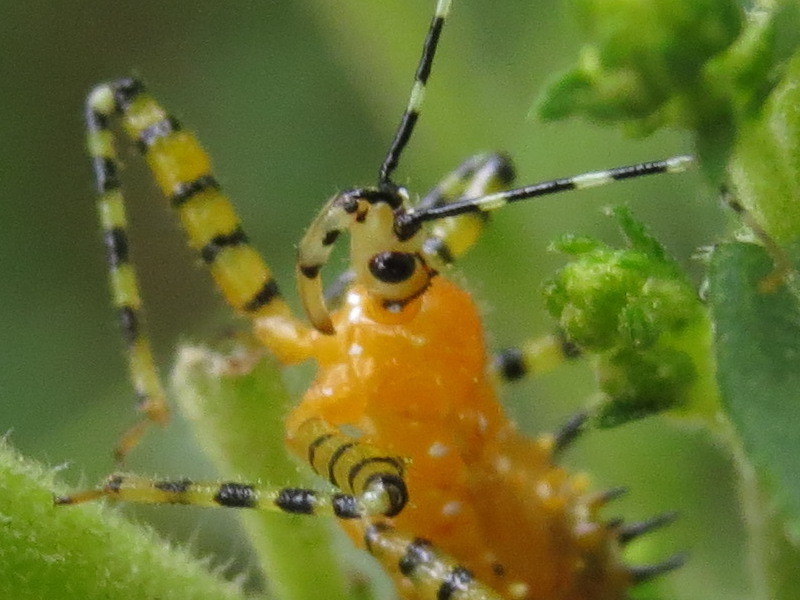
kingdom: Animalia
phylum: Arthropoda
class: Insecta
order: Hemiptera
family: Reduviidae
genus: Pselliopus
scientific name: Pselliopus barberi
